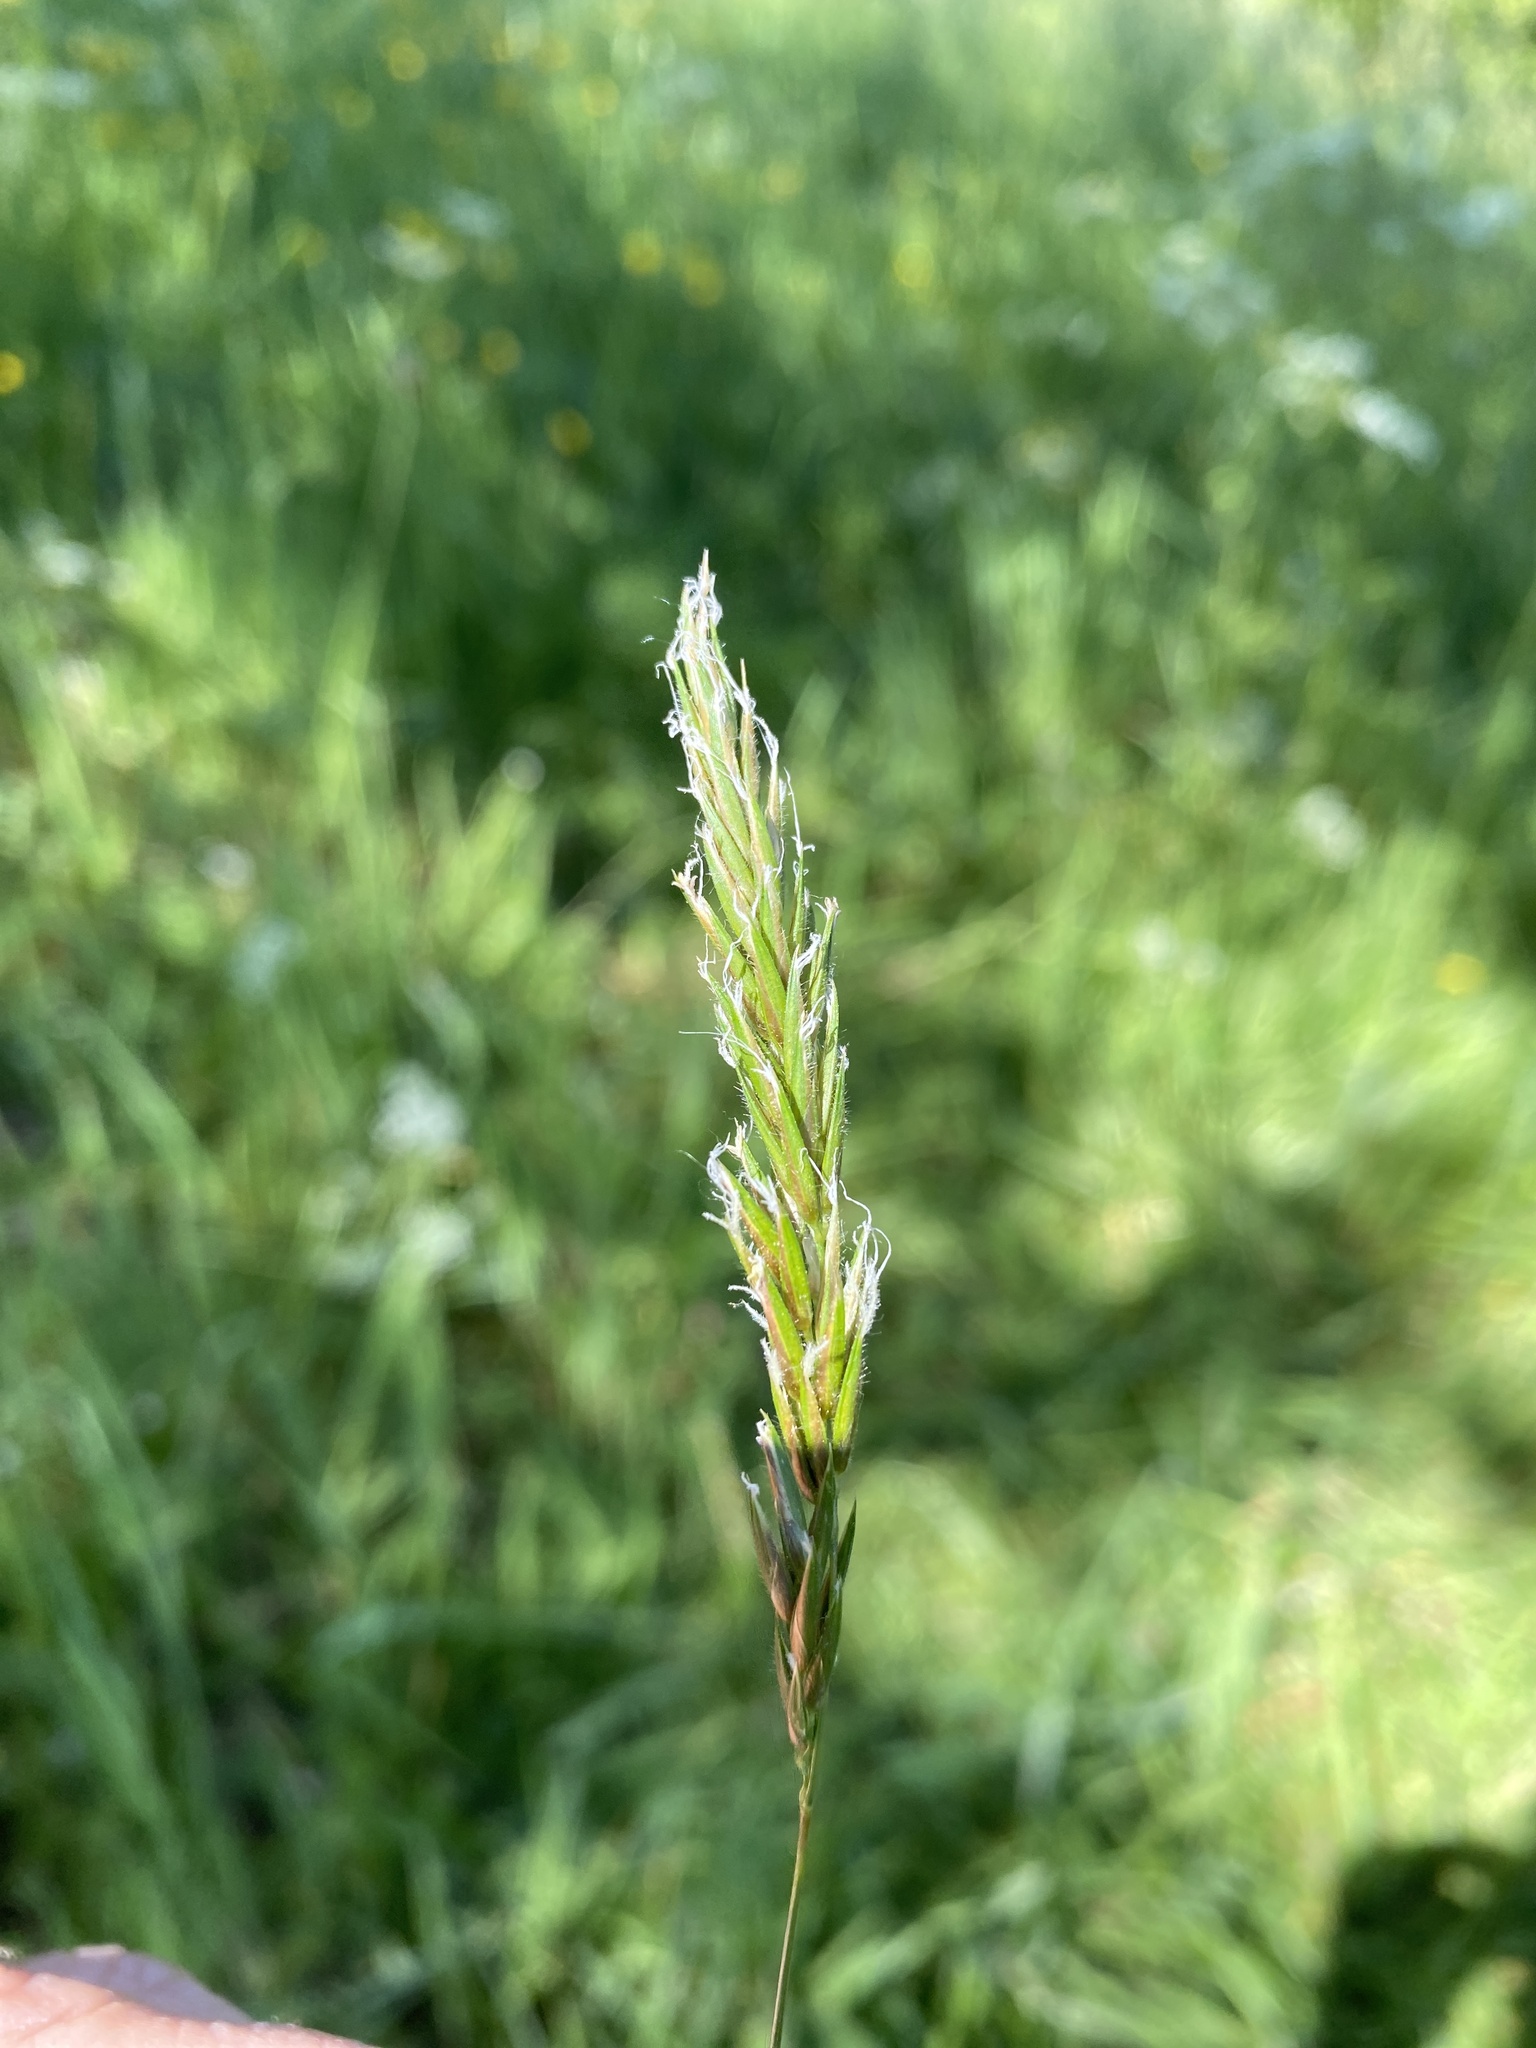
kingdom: Plantae
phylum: Tracheophyta
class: Liliopsida
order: Poales
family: Poaceae
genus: Anthoxanthum
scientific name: Anthoxanthum odoratum
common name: Sweet vernalgrass
